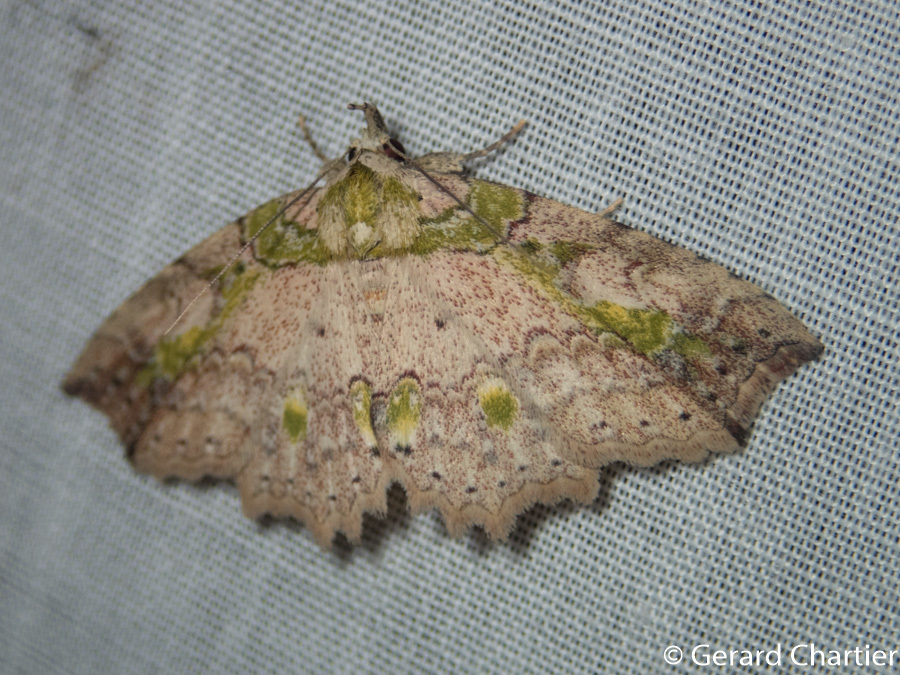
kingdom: Animalia
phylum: Arthropoda
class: Insecta
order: Lepidoptera
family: Erebidae
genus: Tamba
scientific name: Tamba mnionomera
